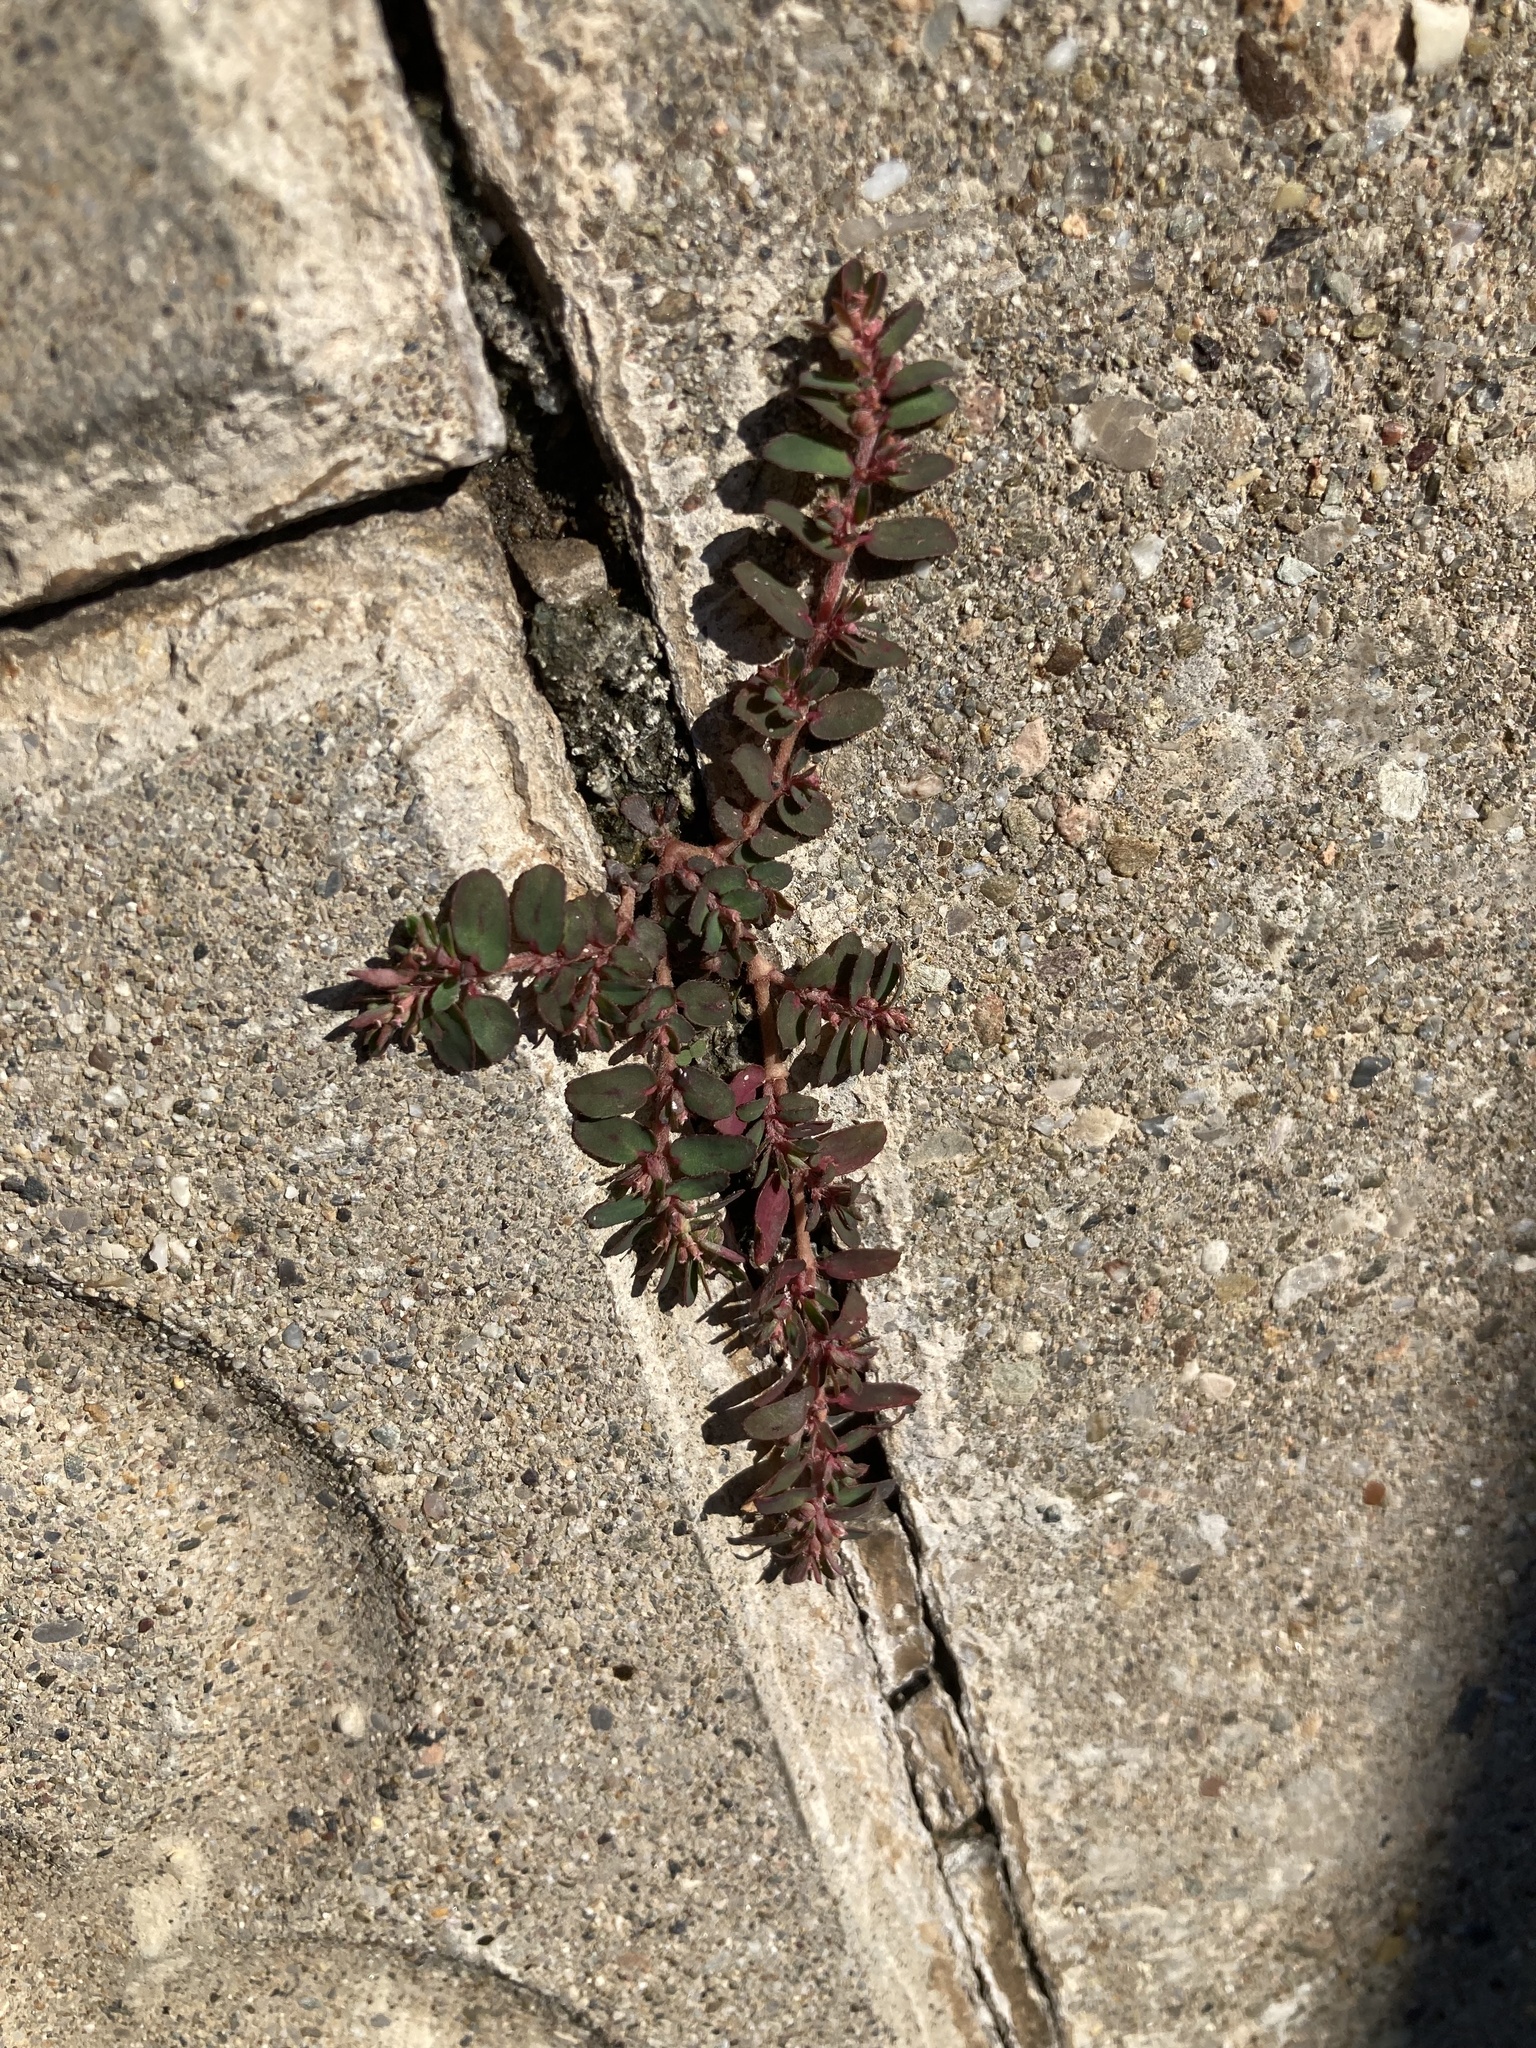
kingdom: Plantae
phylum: Tracheophyta
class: Magnoliopsida
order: Malpighiales
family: Euphorbiaceae
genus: Euphorbia
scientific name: Euphorbia maculata
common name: Spotted spurge
